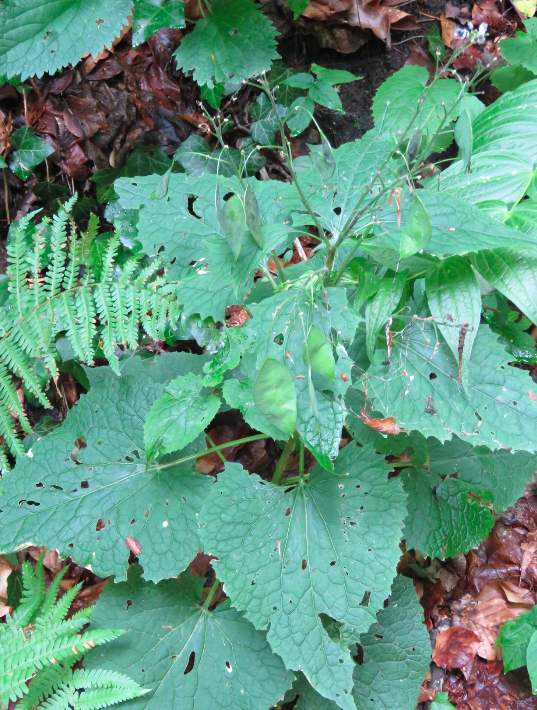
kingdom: Plantae
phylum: Tracheophyta
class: Magnoliopsida
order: Brassicales
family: Brassicaceae
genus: Lunaria
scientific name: Lunaria rediviva
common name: Perennial honesty
